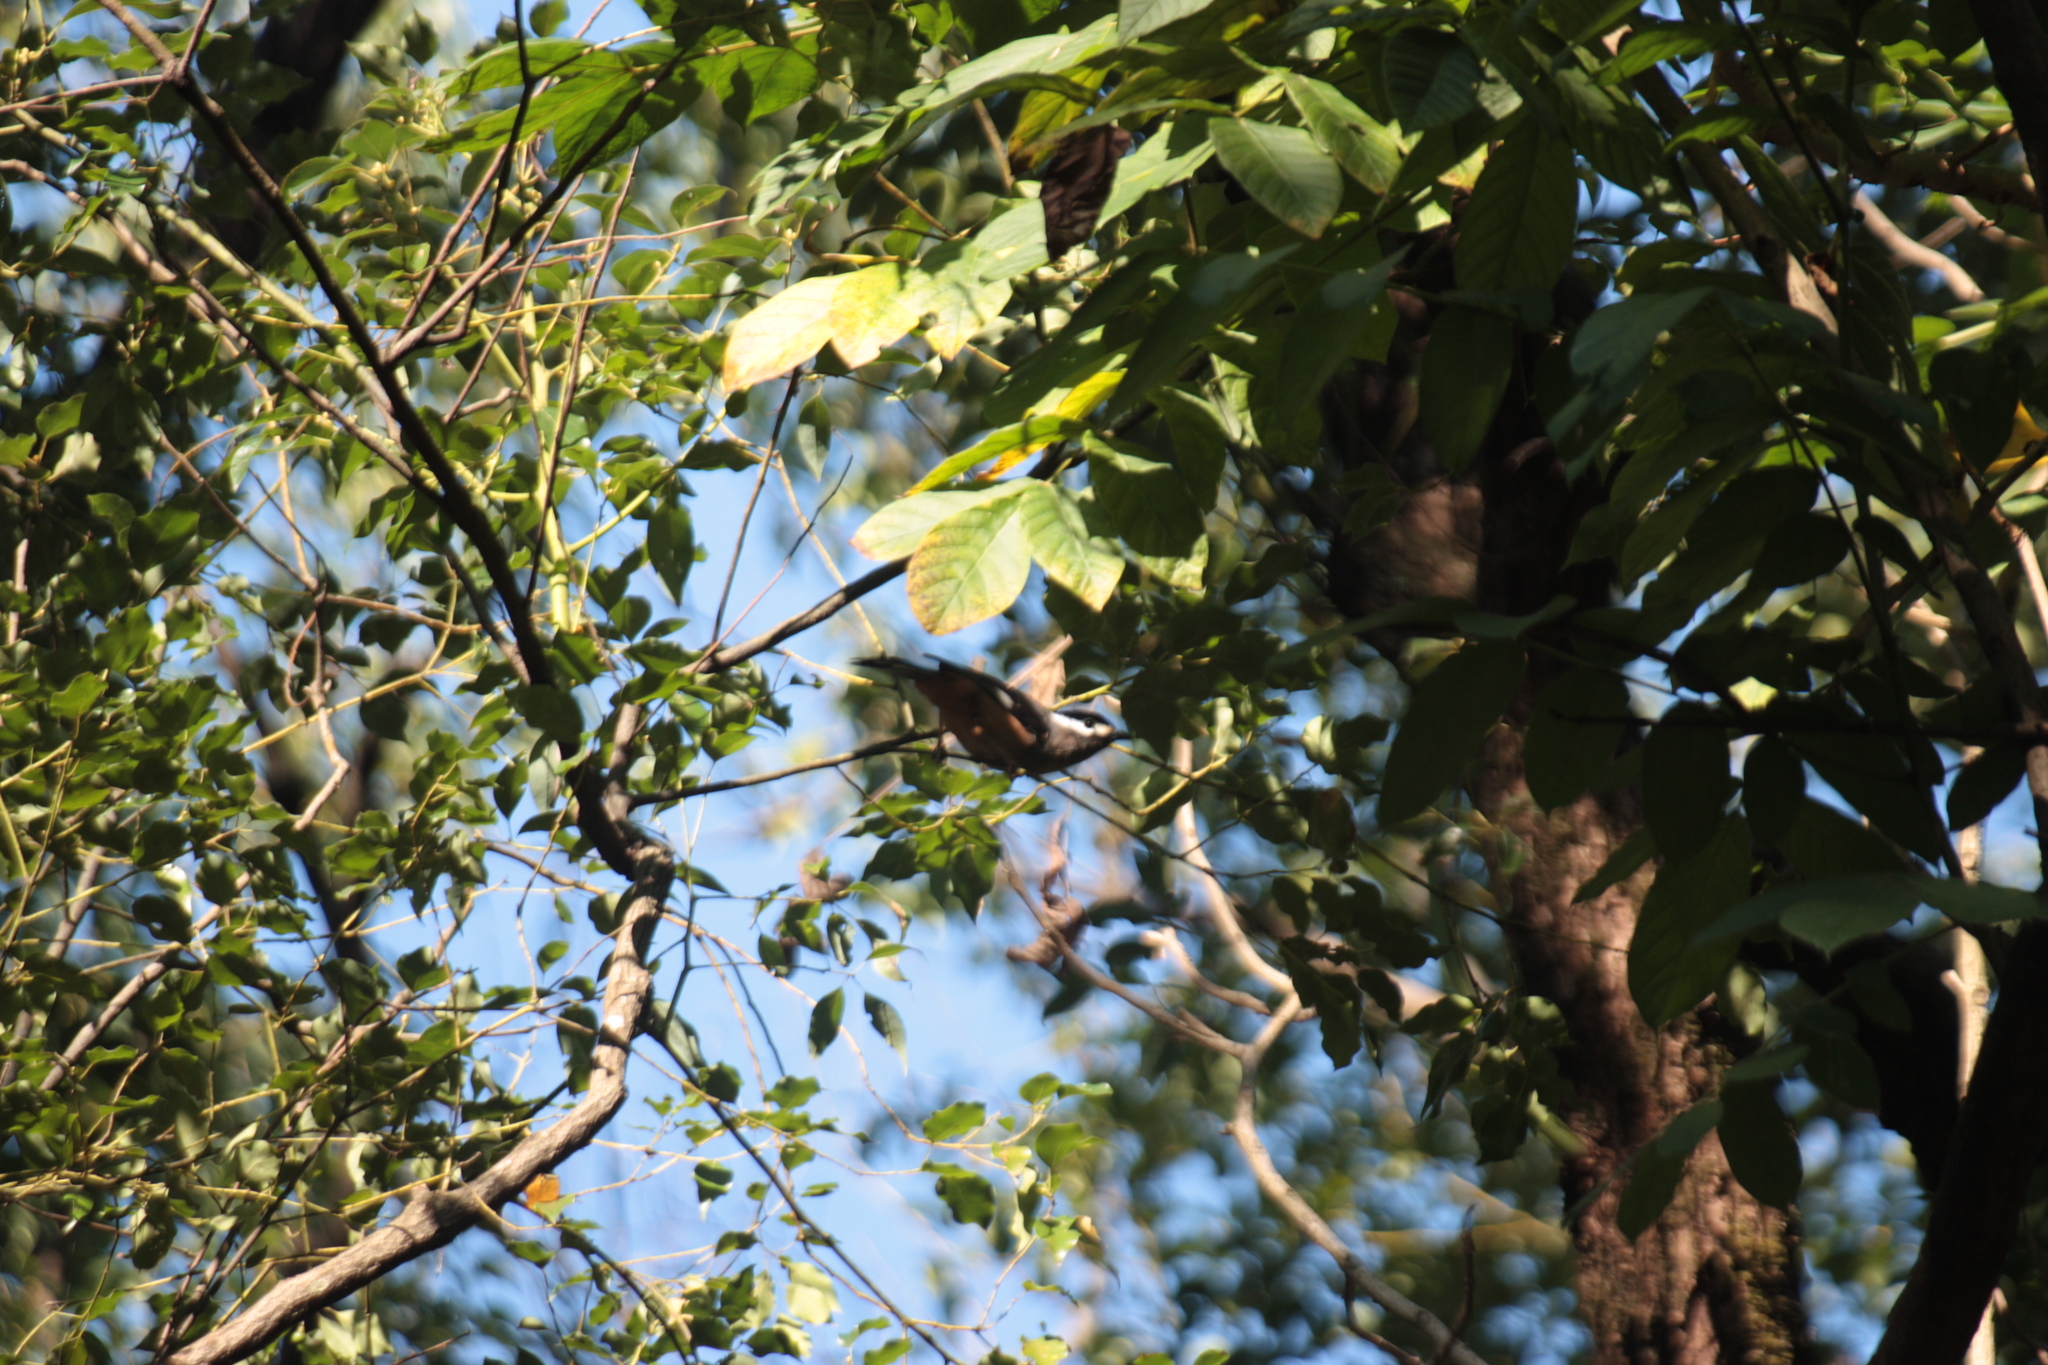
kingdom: Animalia
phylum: Chordata
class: Aves
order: Passeriformes
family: Corvidae
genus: Dendrocitta
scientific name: Dendrocitta formosae
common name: Grey treepie
